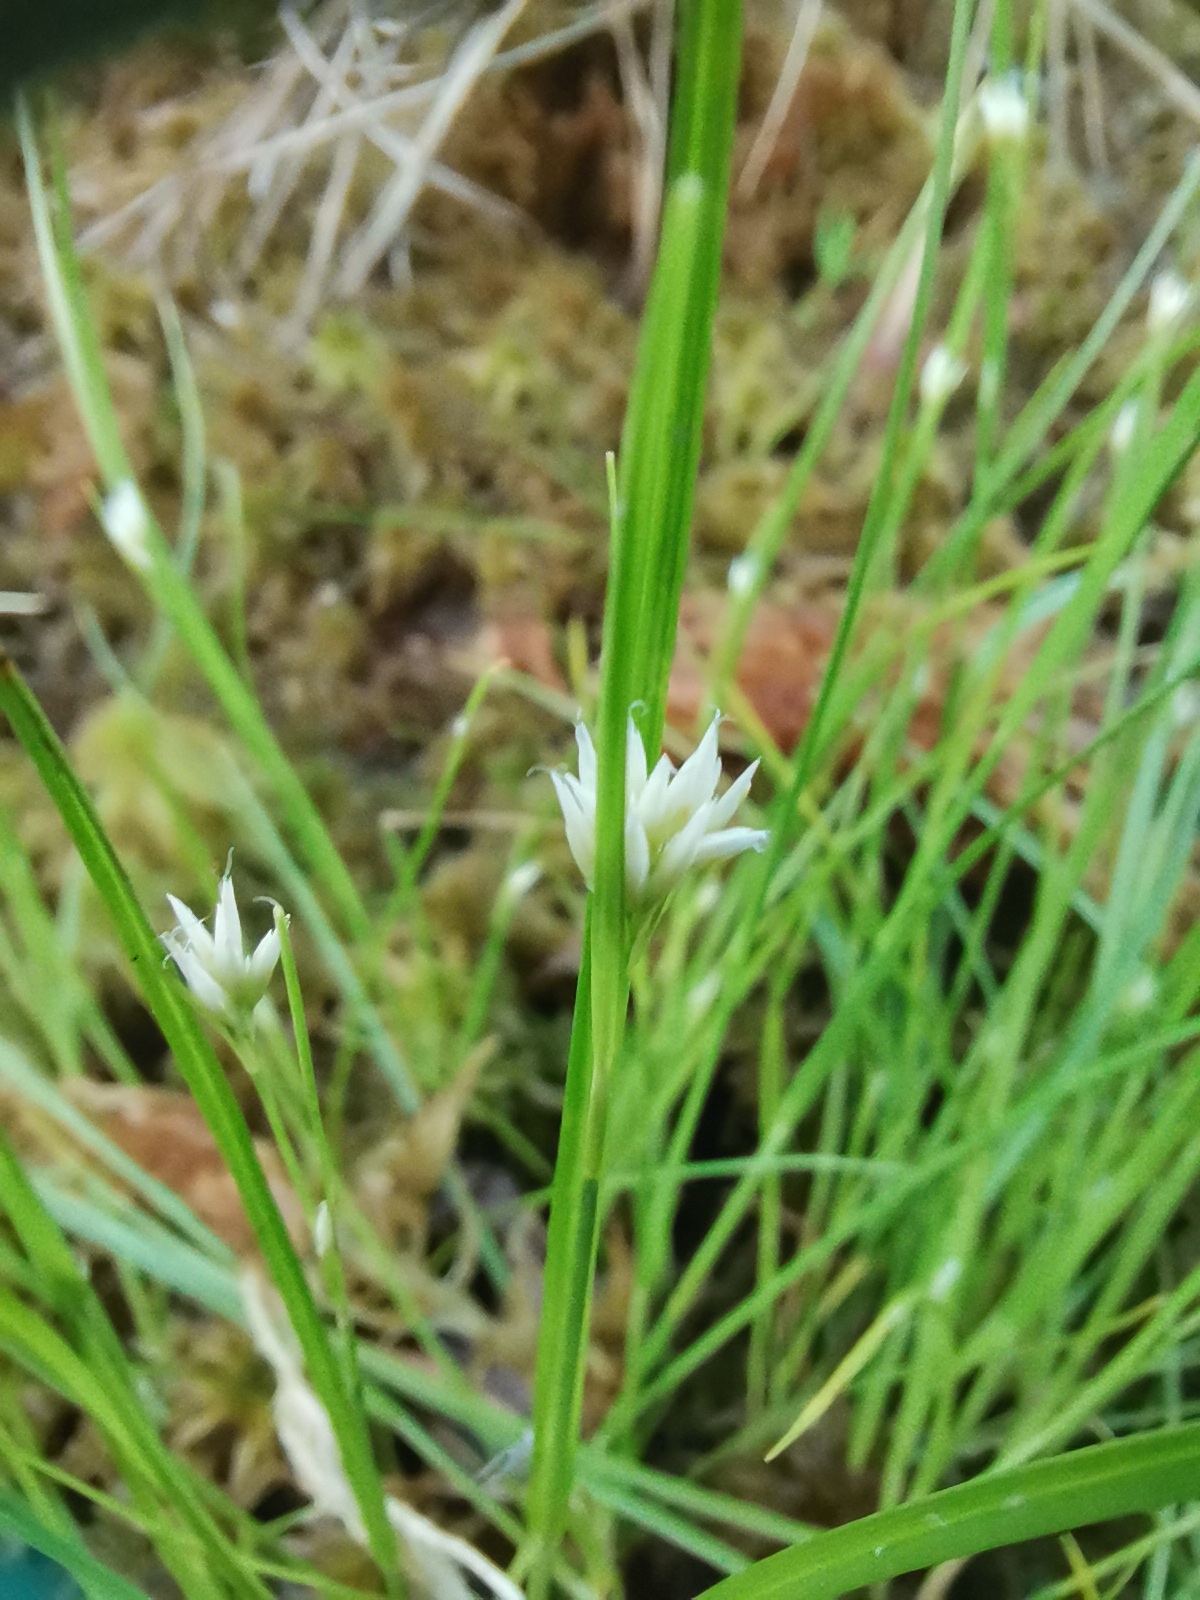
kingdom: Plantae
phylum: Tracheophyta
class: Liliopsida
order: Poales
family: Cyperaceae
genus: Rhynchospora
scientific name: Rhynchospora alba
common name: White beak-sedge
